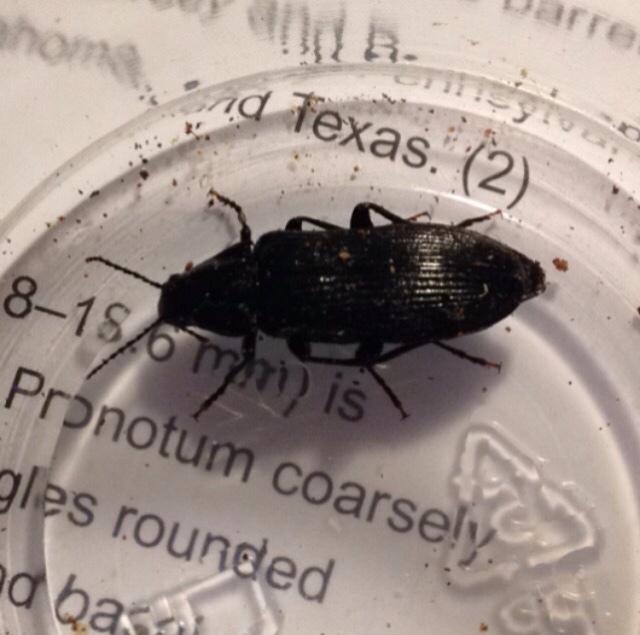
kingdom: Animalia
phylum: Arthropoda
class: Insecta
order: Coleoptera
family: Melandryidae
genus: Melandrya
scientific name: Melandrya striata
